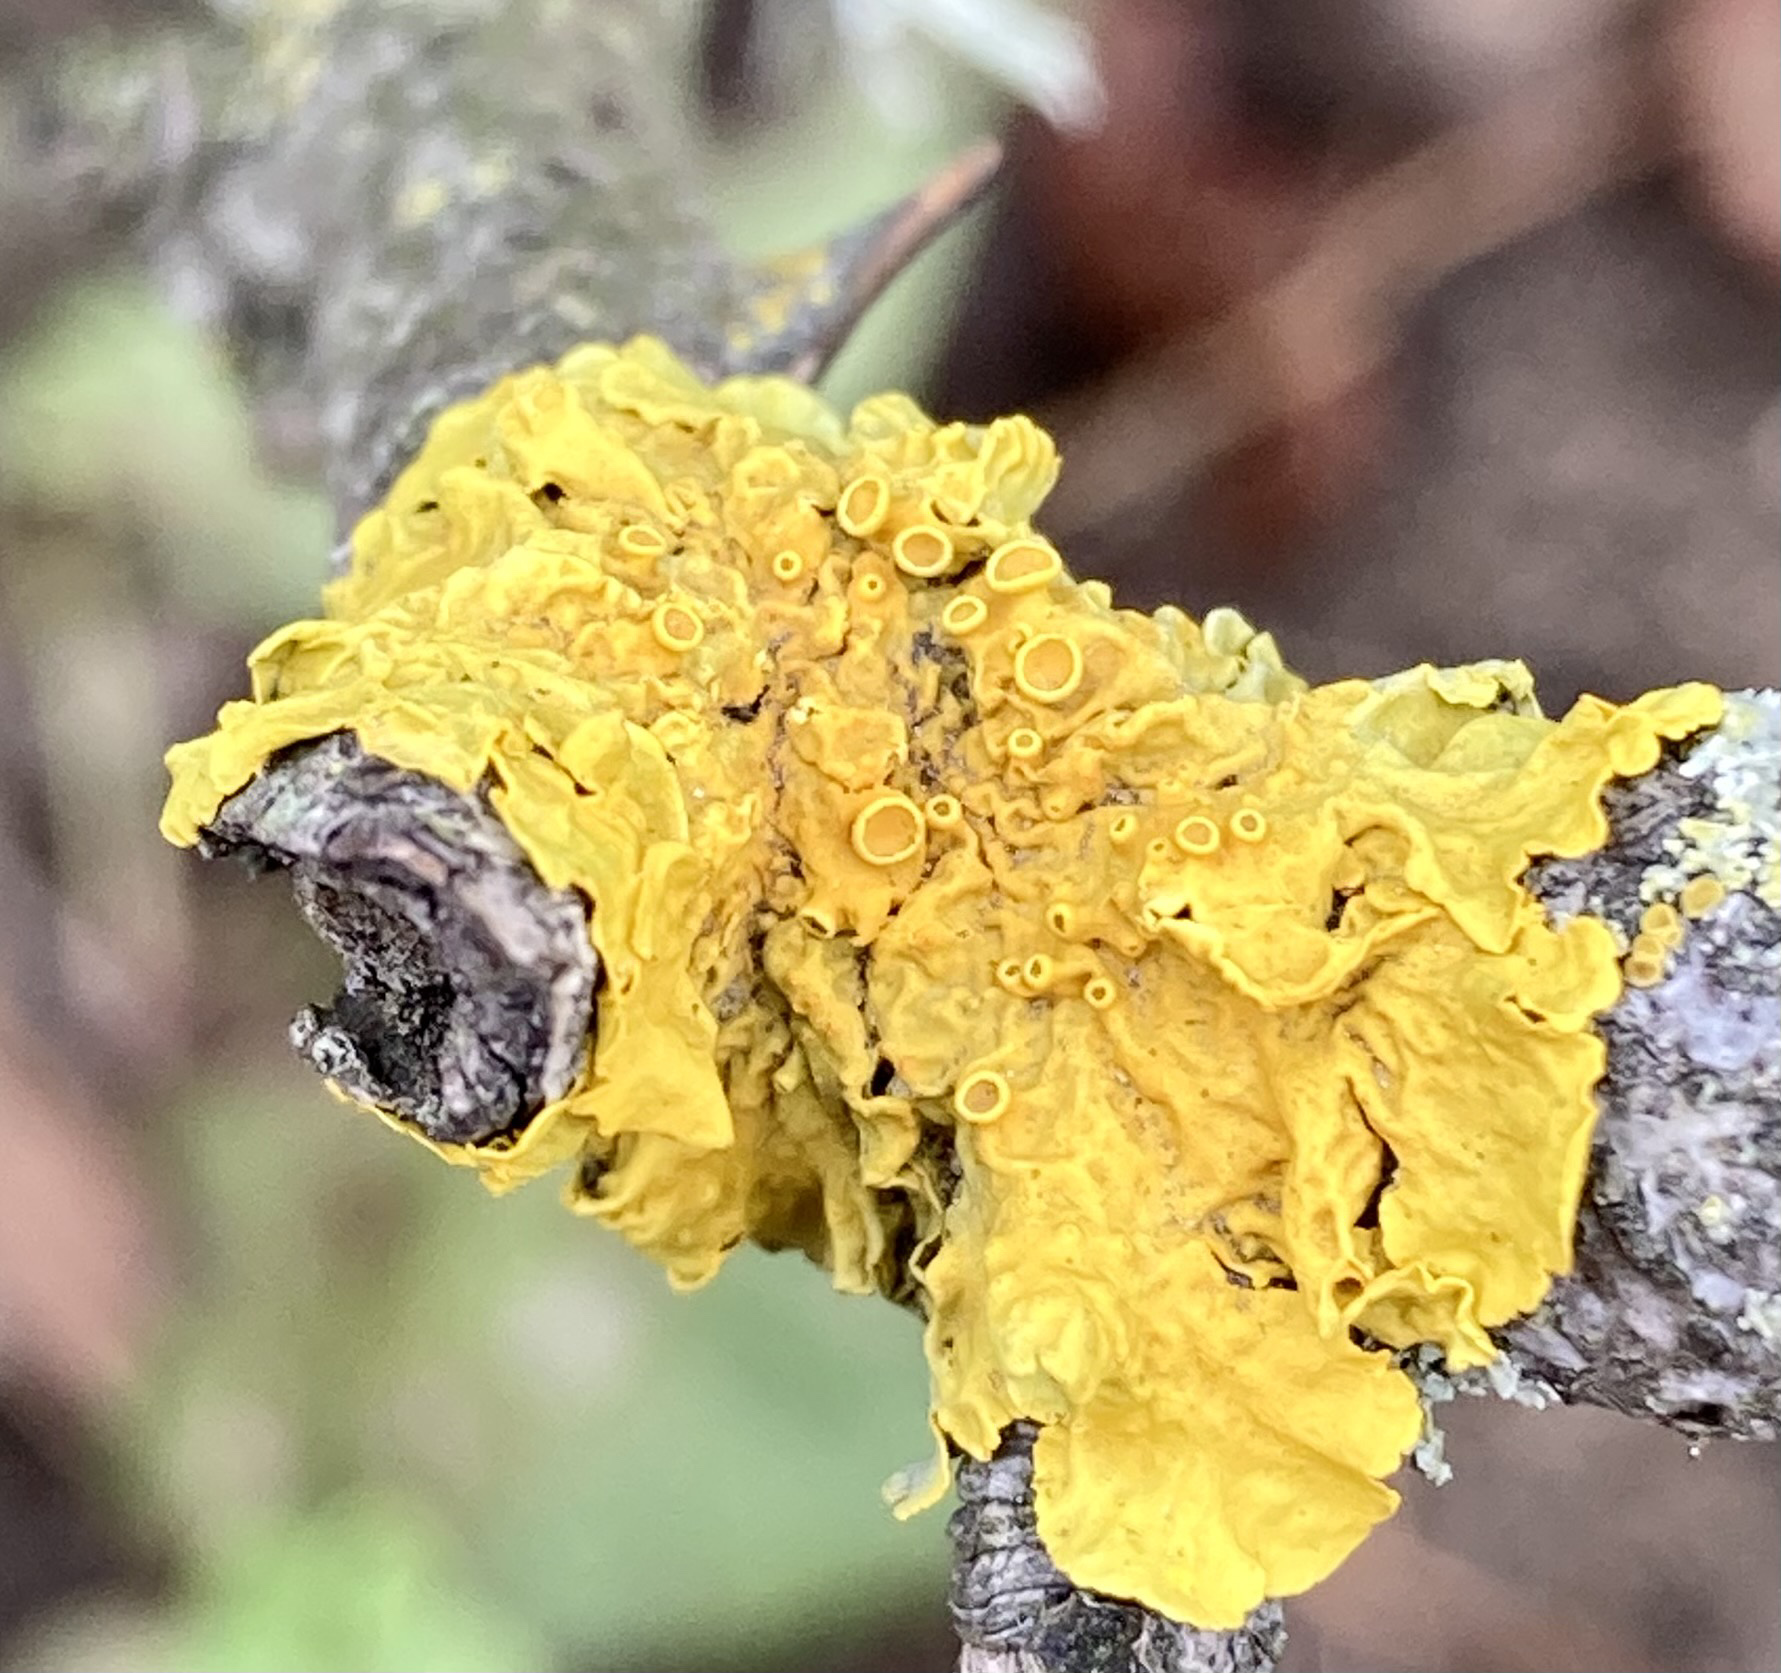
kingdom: Fungi
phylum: Ascomycota
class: Lecanoromycetes
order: Teloschistales
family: Teloschistaceae
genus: Xanthoria
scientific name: Xanthoria parietina
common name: Common orange lichen
